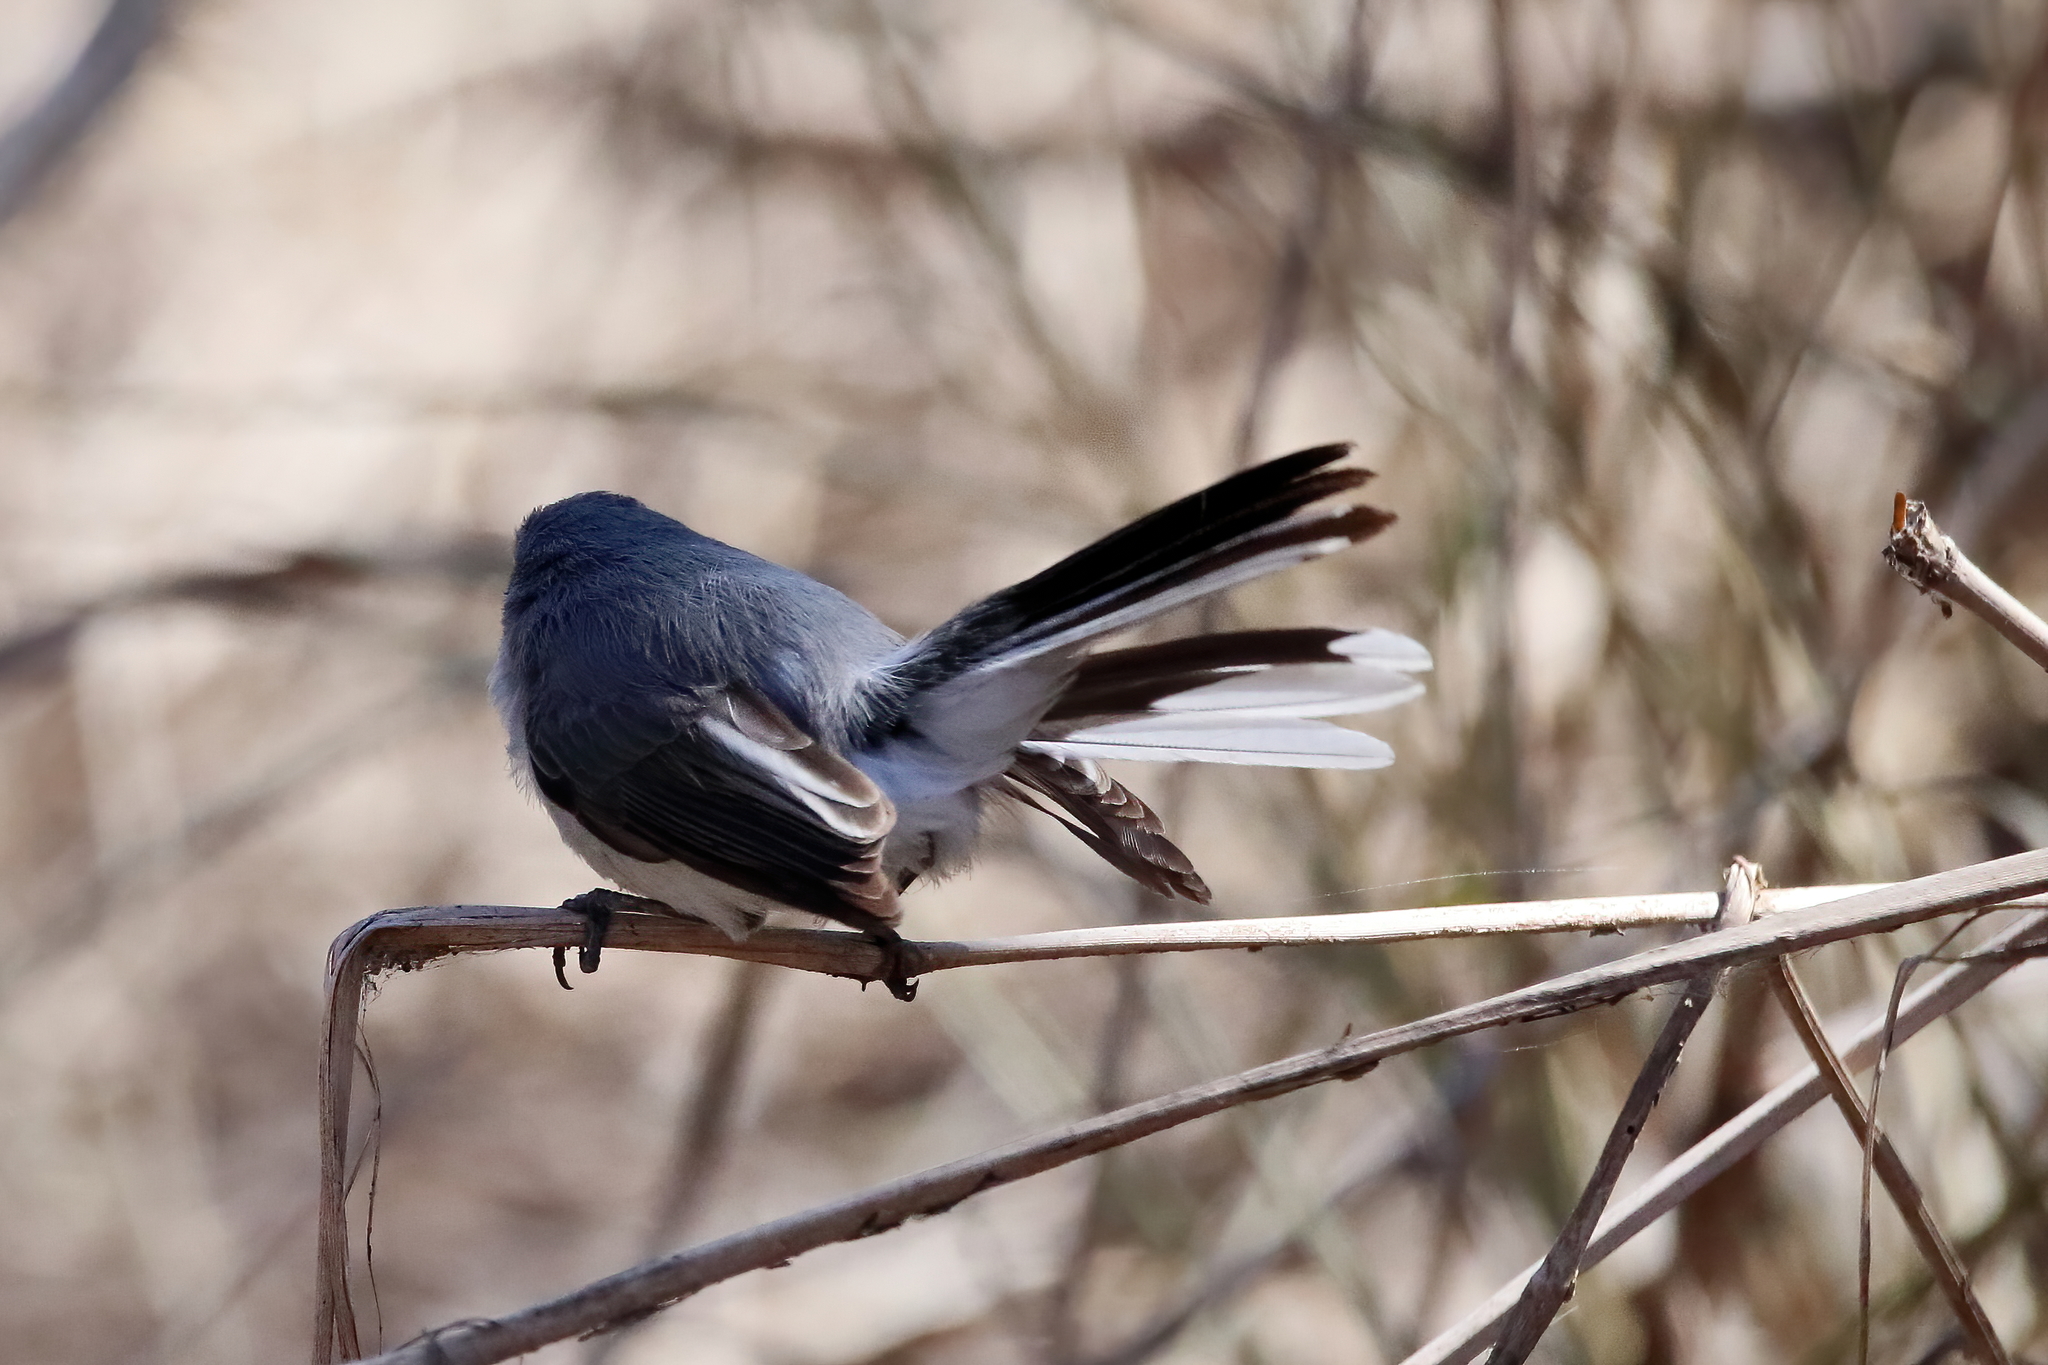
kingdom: Animalia
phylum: Chordata
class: Aves
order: Passeriformes
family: Polioptilidae
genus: Polioptila
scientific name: Polioptila caerulea
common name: Blue-gray gnatcatcher
